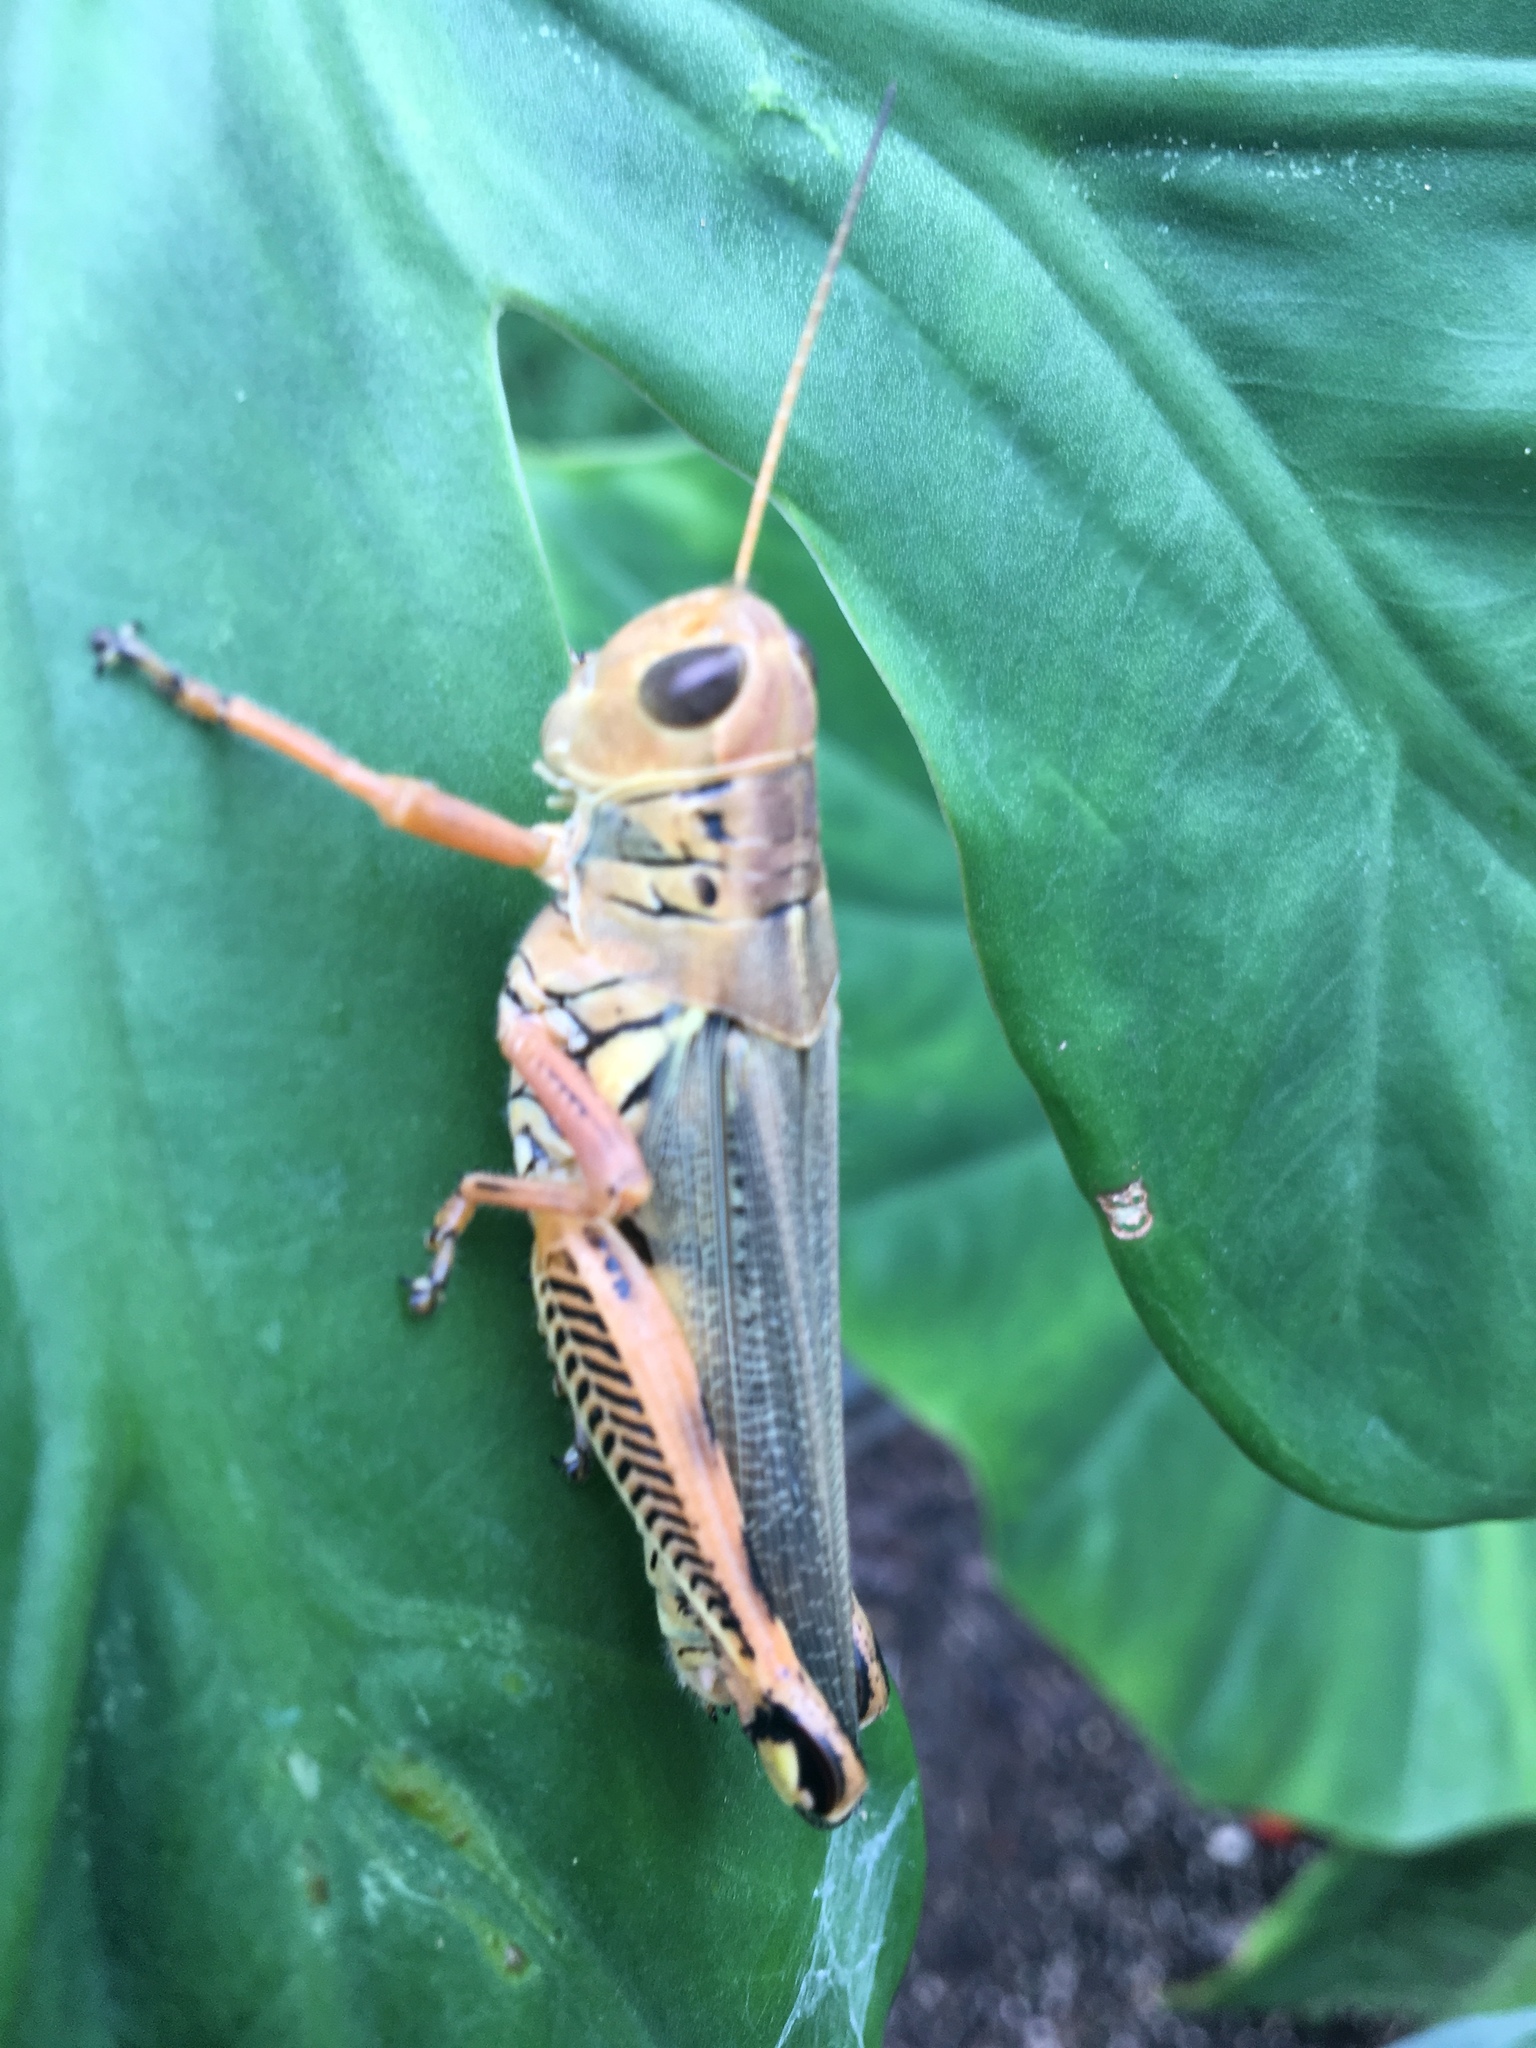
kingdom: Animalia
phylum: Arthropoda
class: Insecta
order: Orthoptera
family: Acrididae
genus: Melanoplus
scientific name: Melanoplus differentialis
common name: Differential grasshopper
